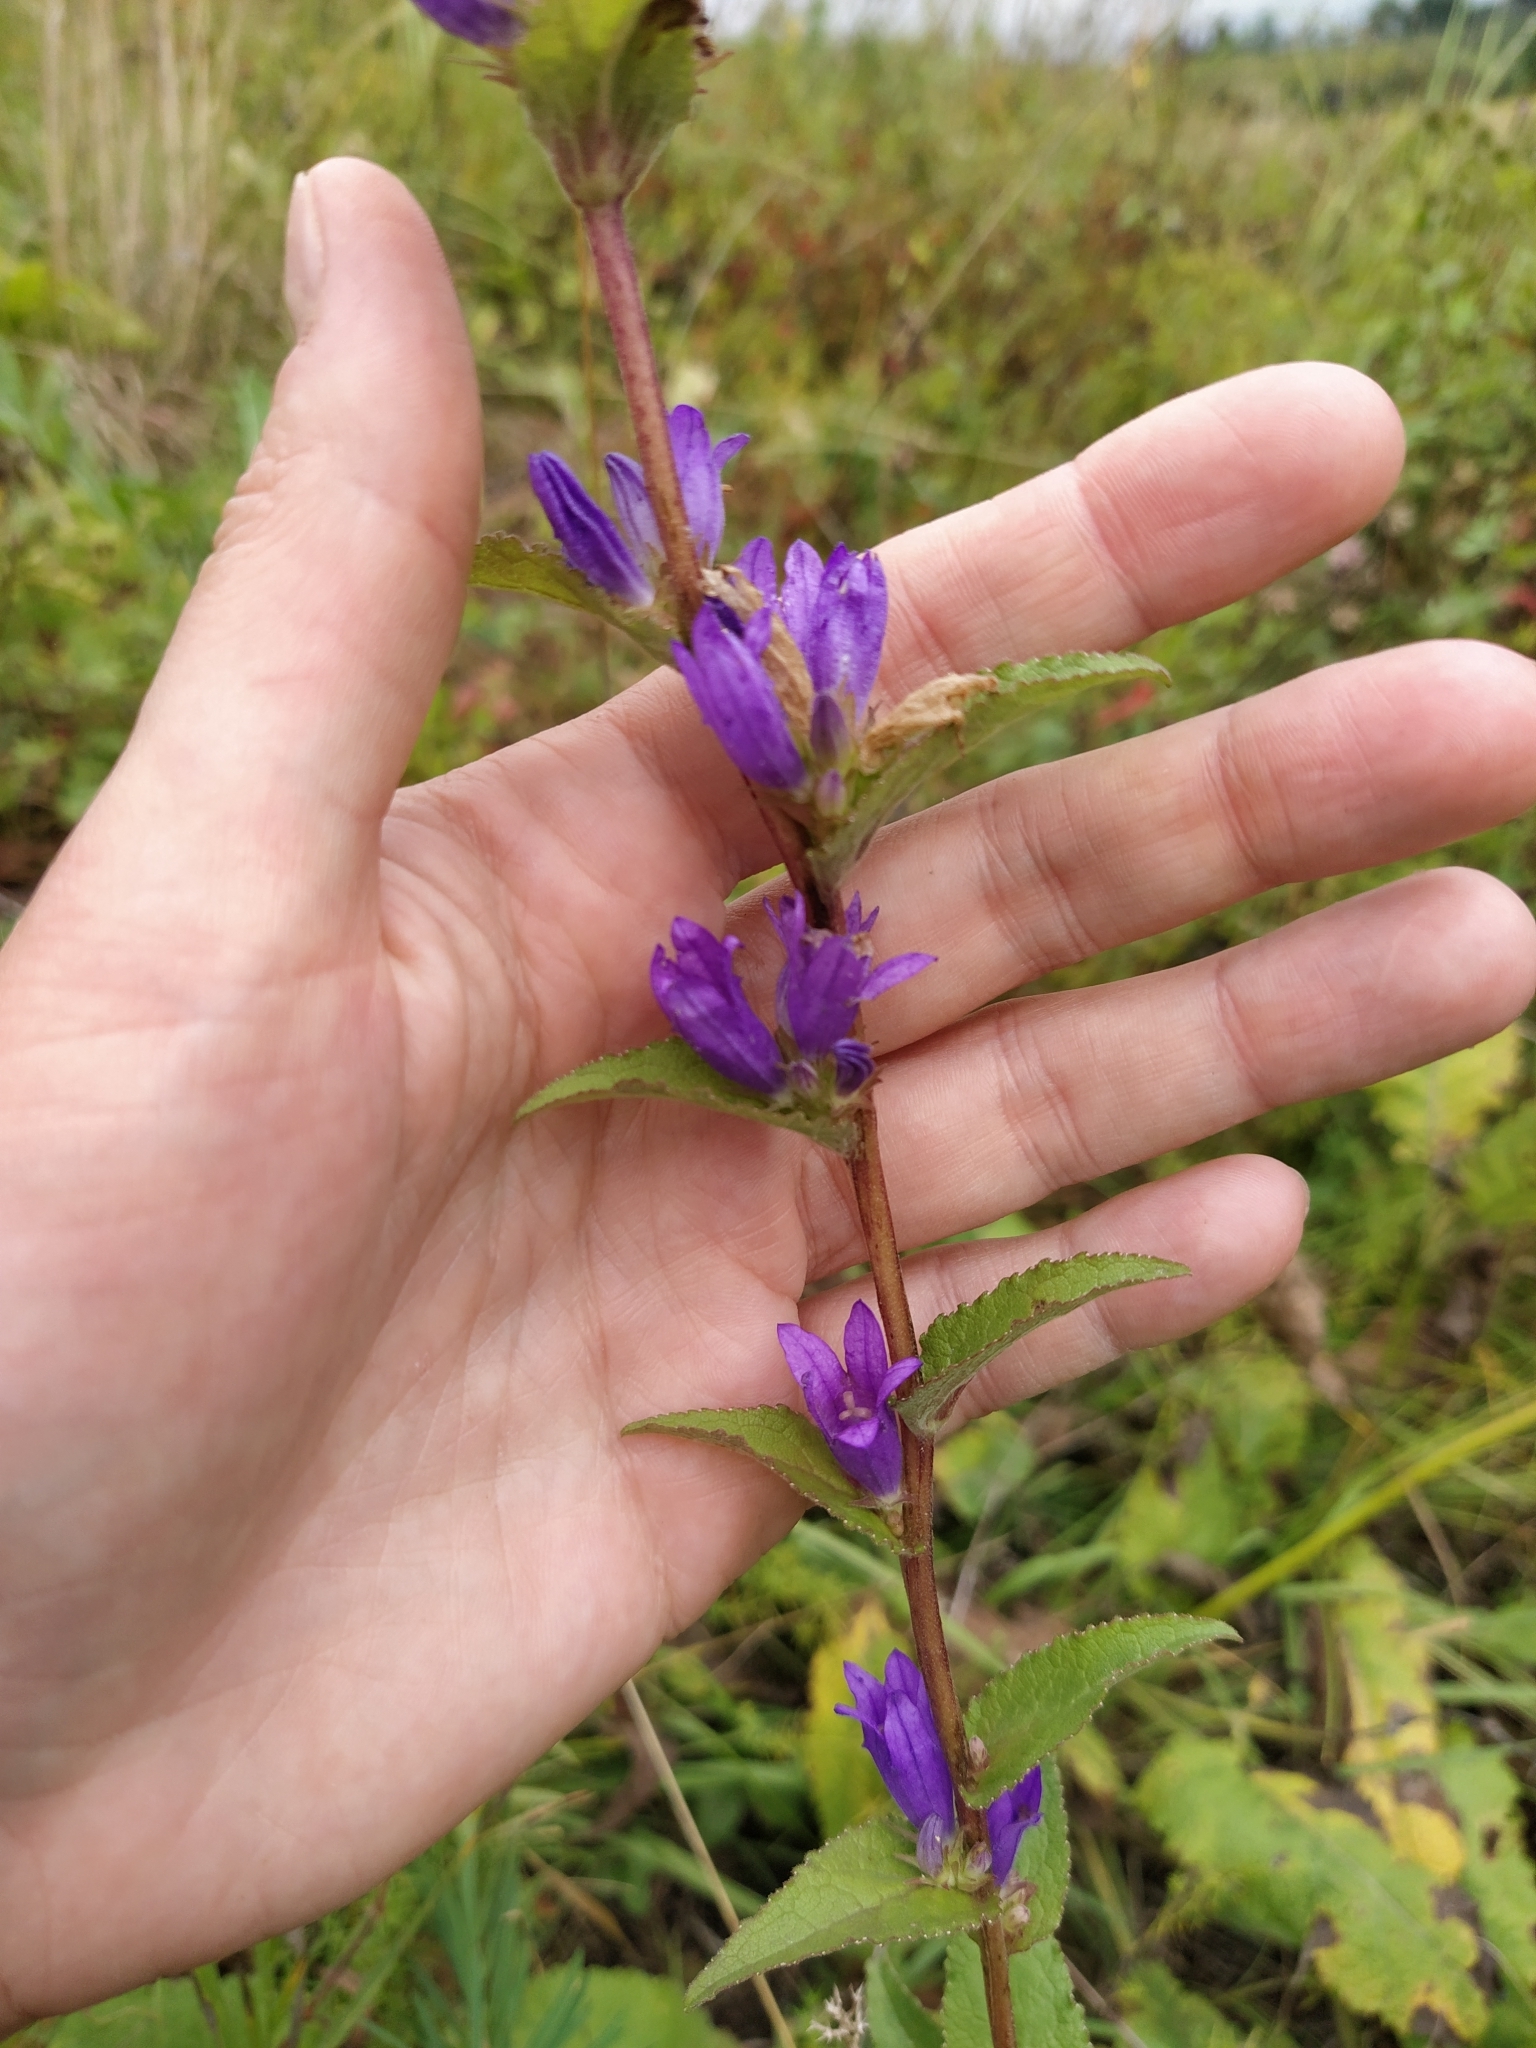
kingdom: Plantae
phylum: Tracheophyta
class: Magnoliopsida
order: Asterales
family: Campanulaceae
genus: Campanula
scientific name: Campanula glomerata
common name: Clustered bellflower
